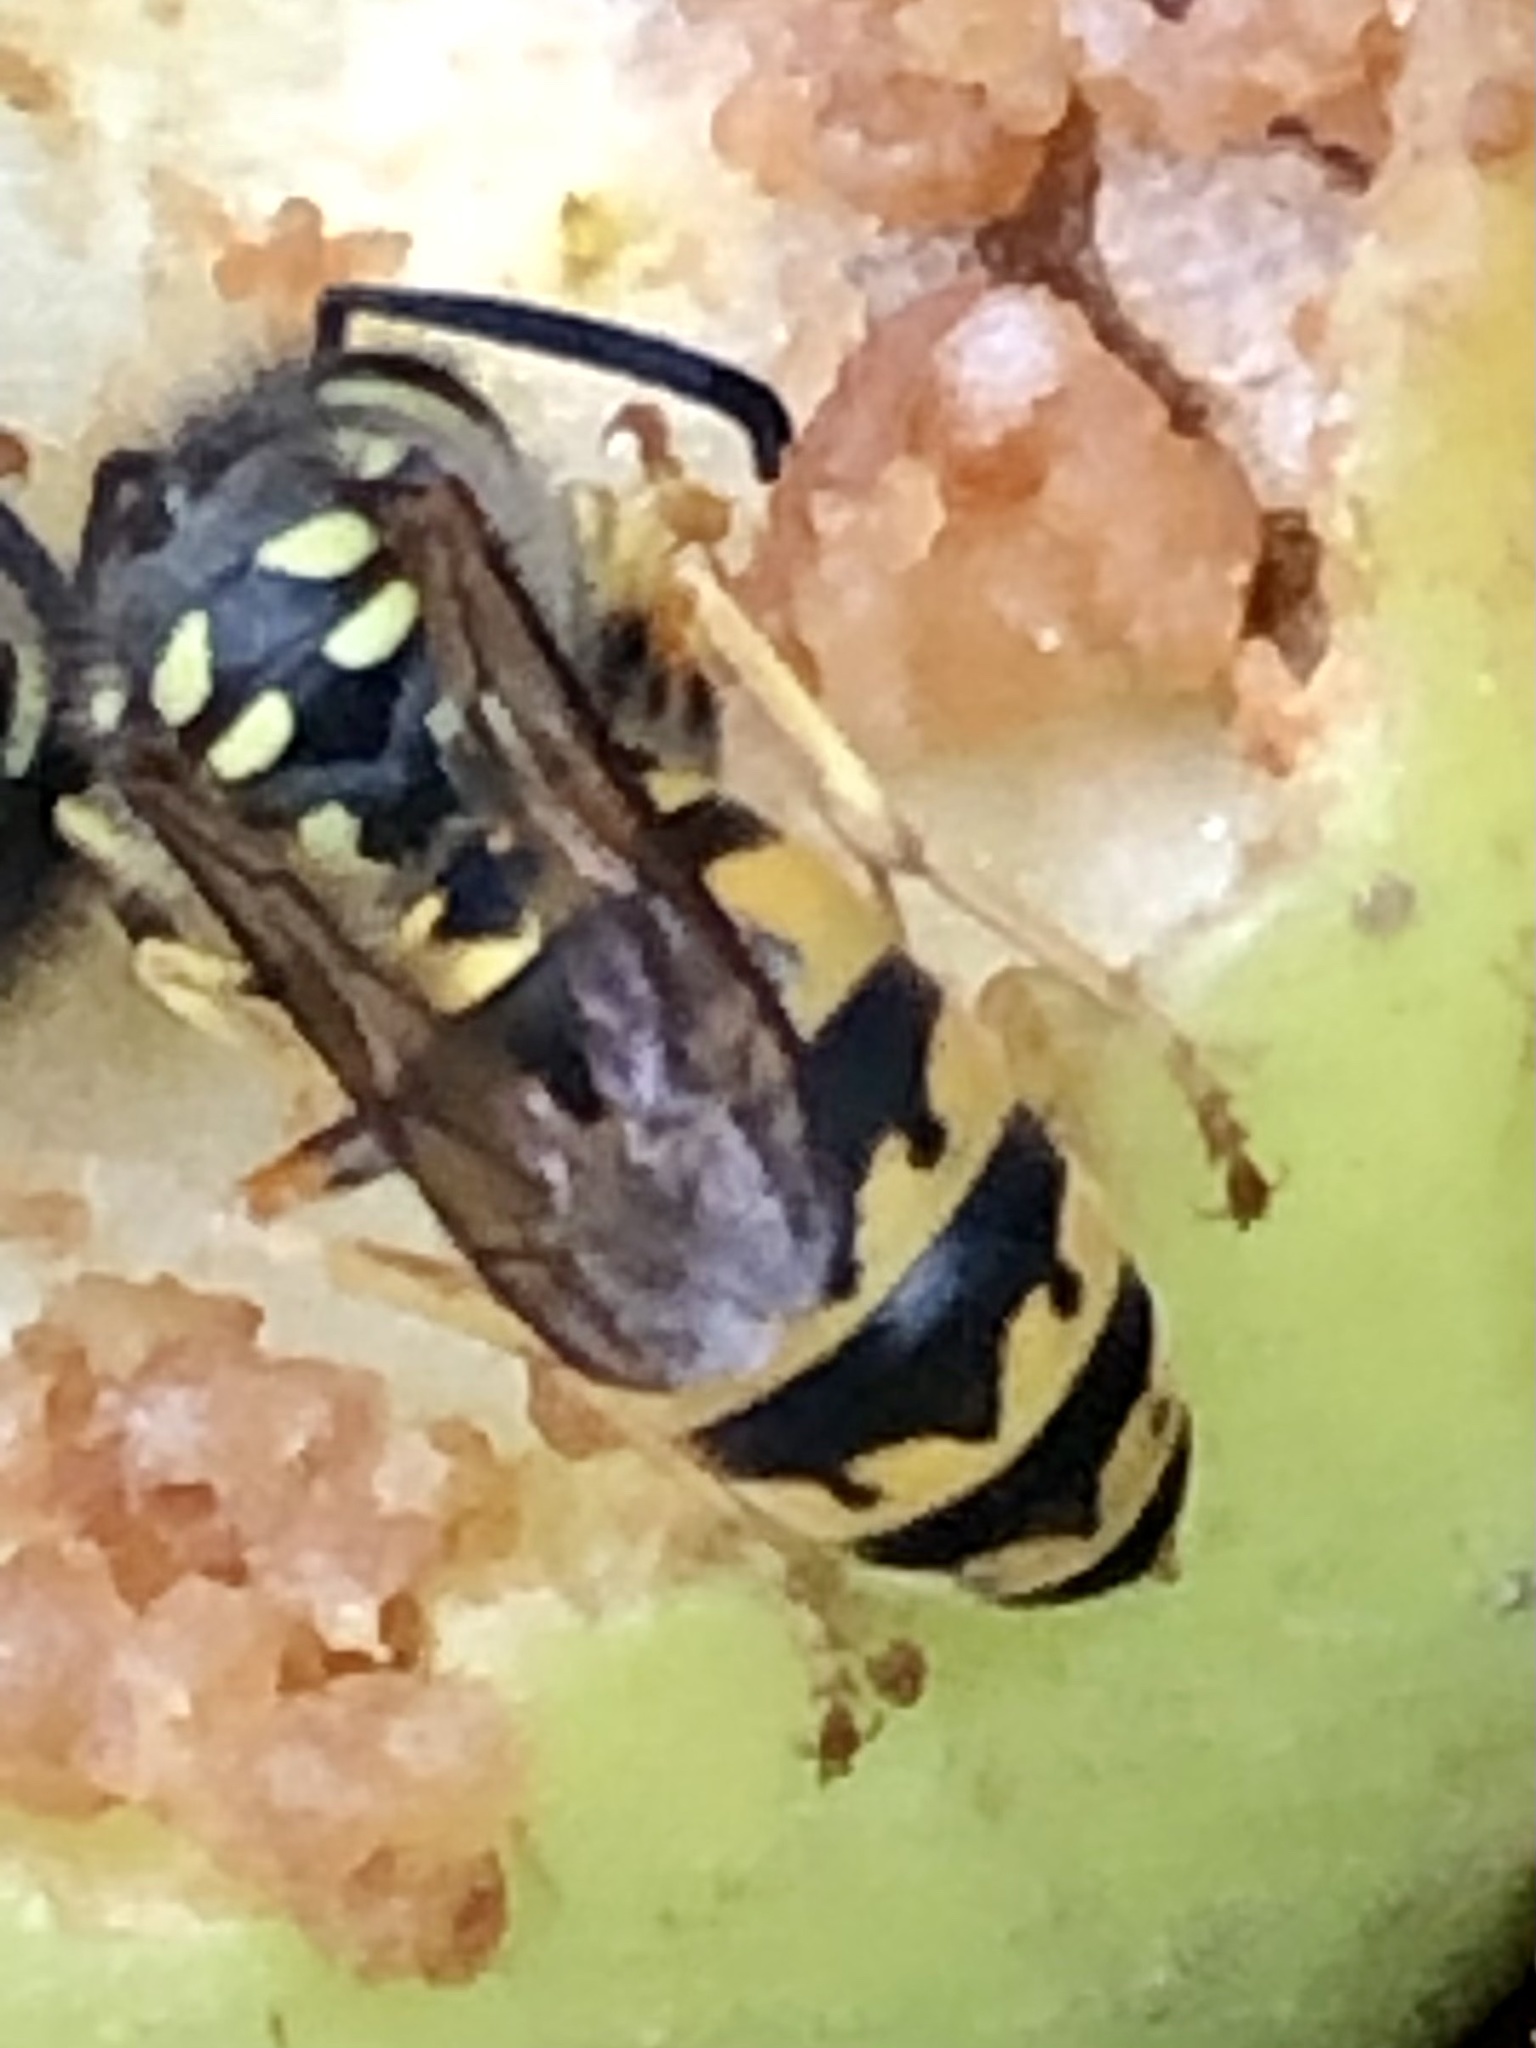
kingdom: Animalia
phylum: Arthropoda
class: Insecta
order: Hymenoptera
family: Vespidae
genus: Vespula
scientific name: Vespula germanica
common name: German wasp
